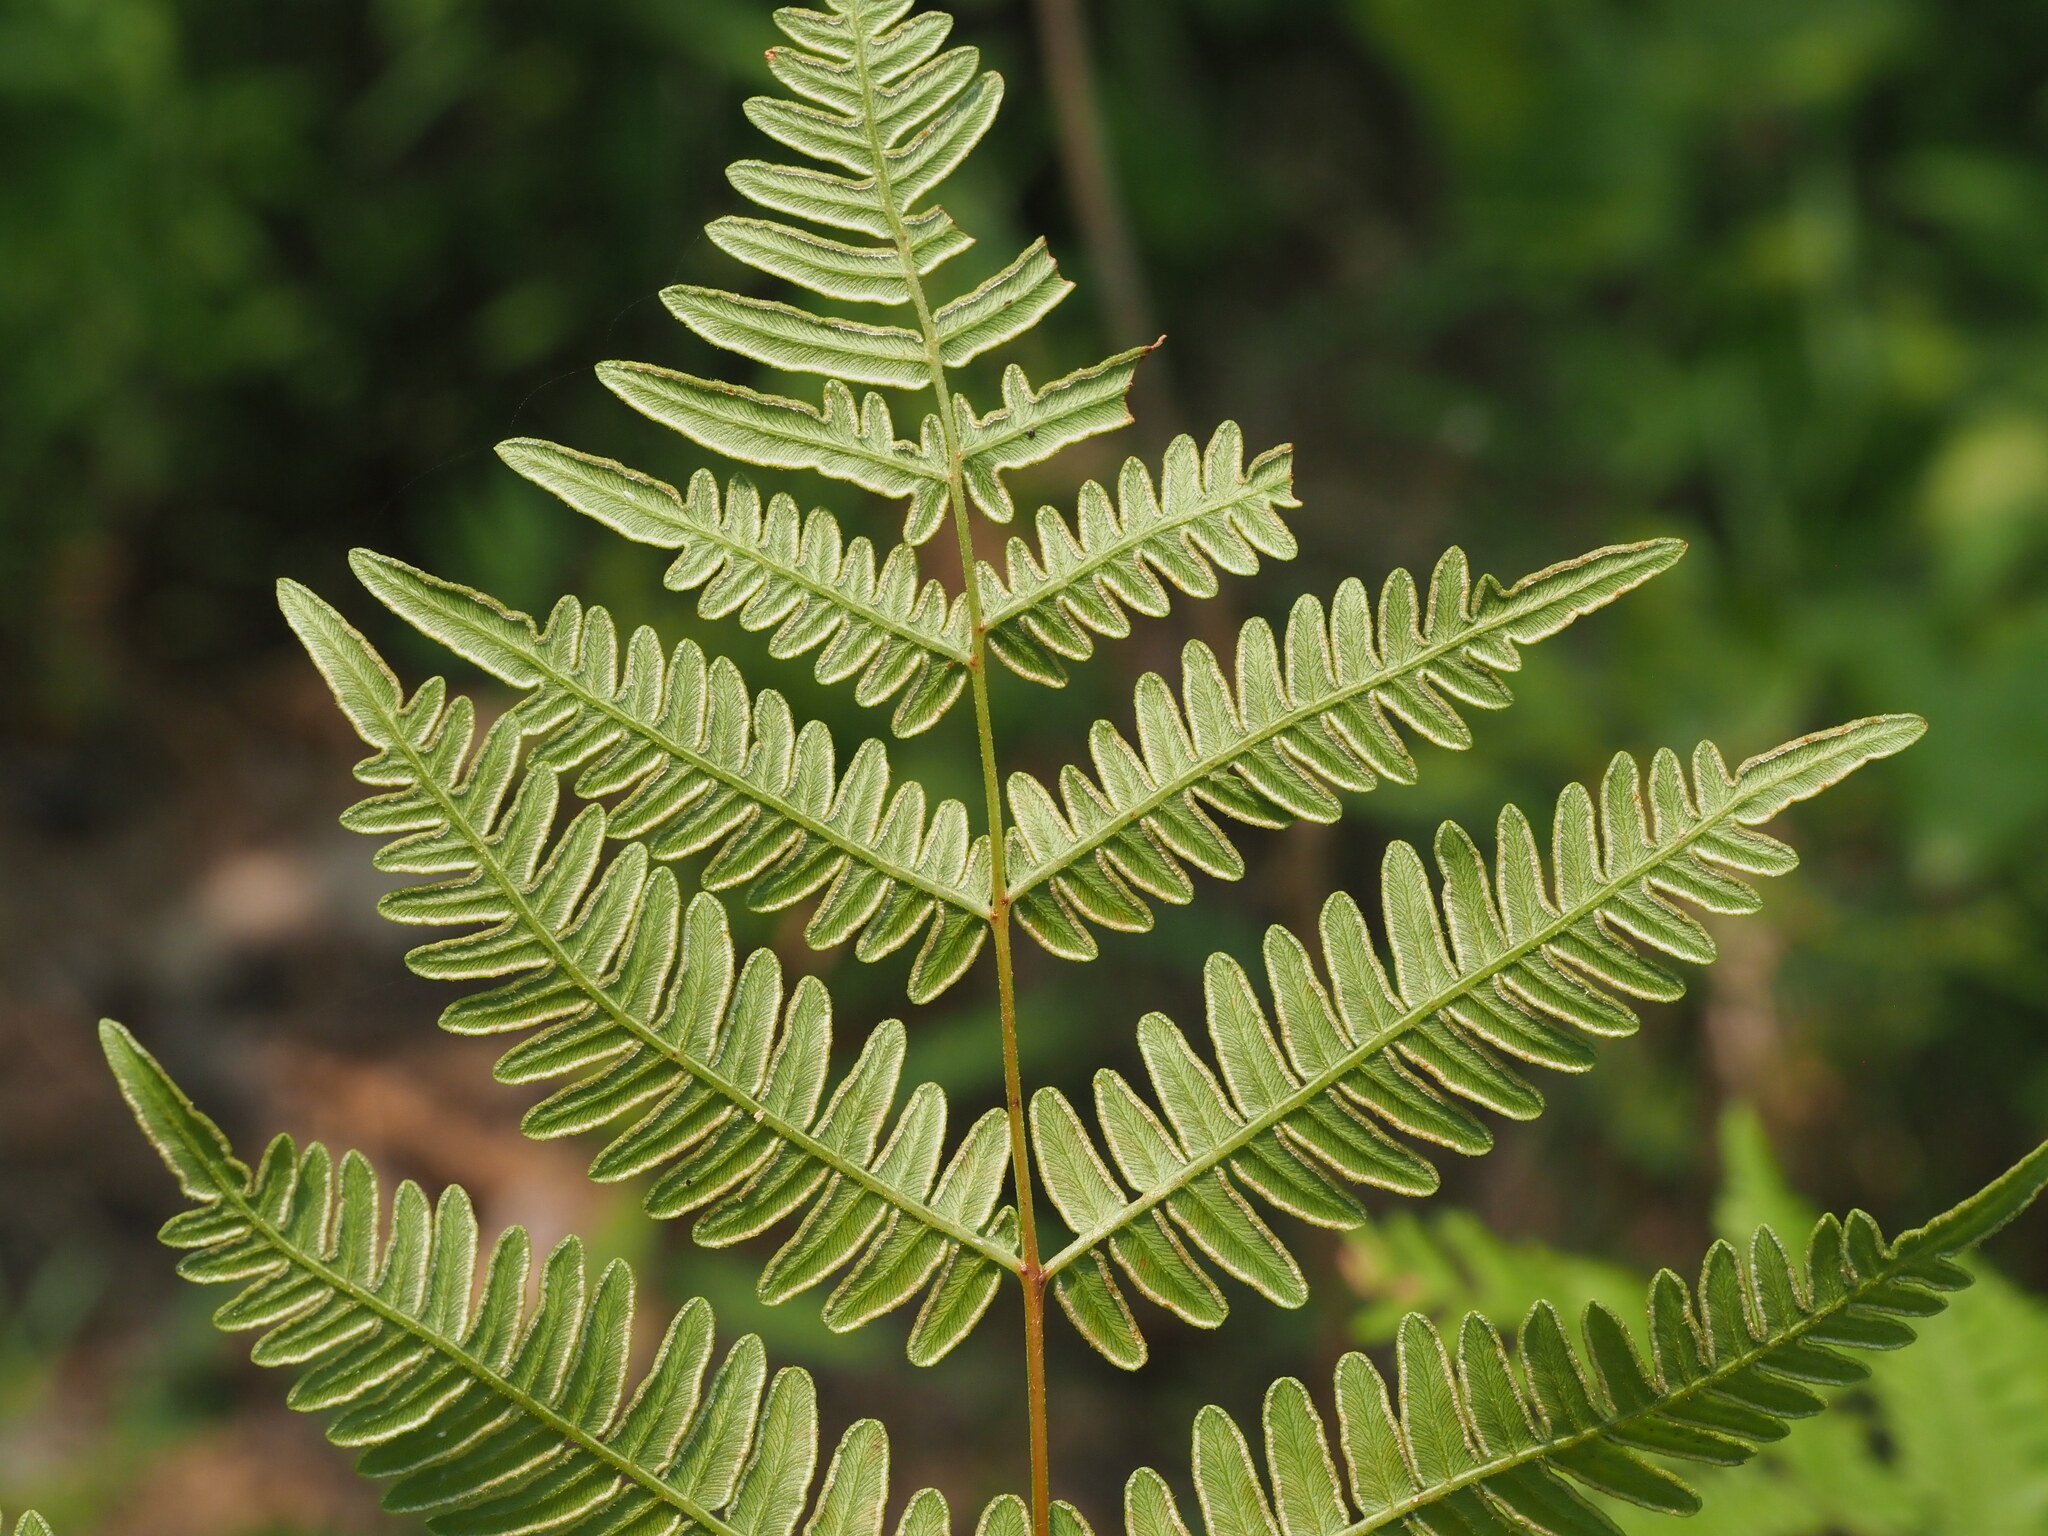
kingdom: Plantae
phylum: Tracheophyta
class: Polypodiopsida
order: Polypodiales
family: Dennstaedtiaceae
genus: Pteridium
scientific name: Pteridium aquilinum
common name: Bracken
